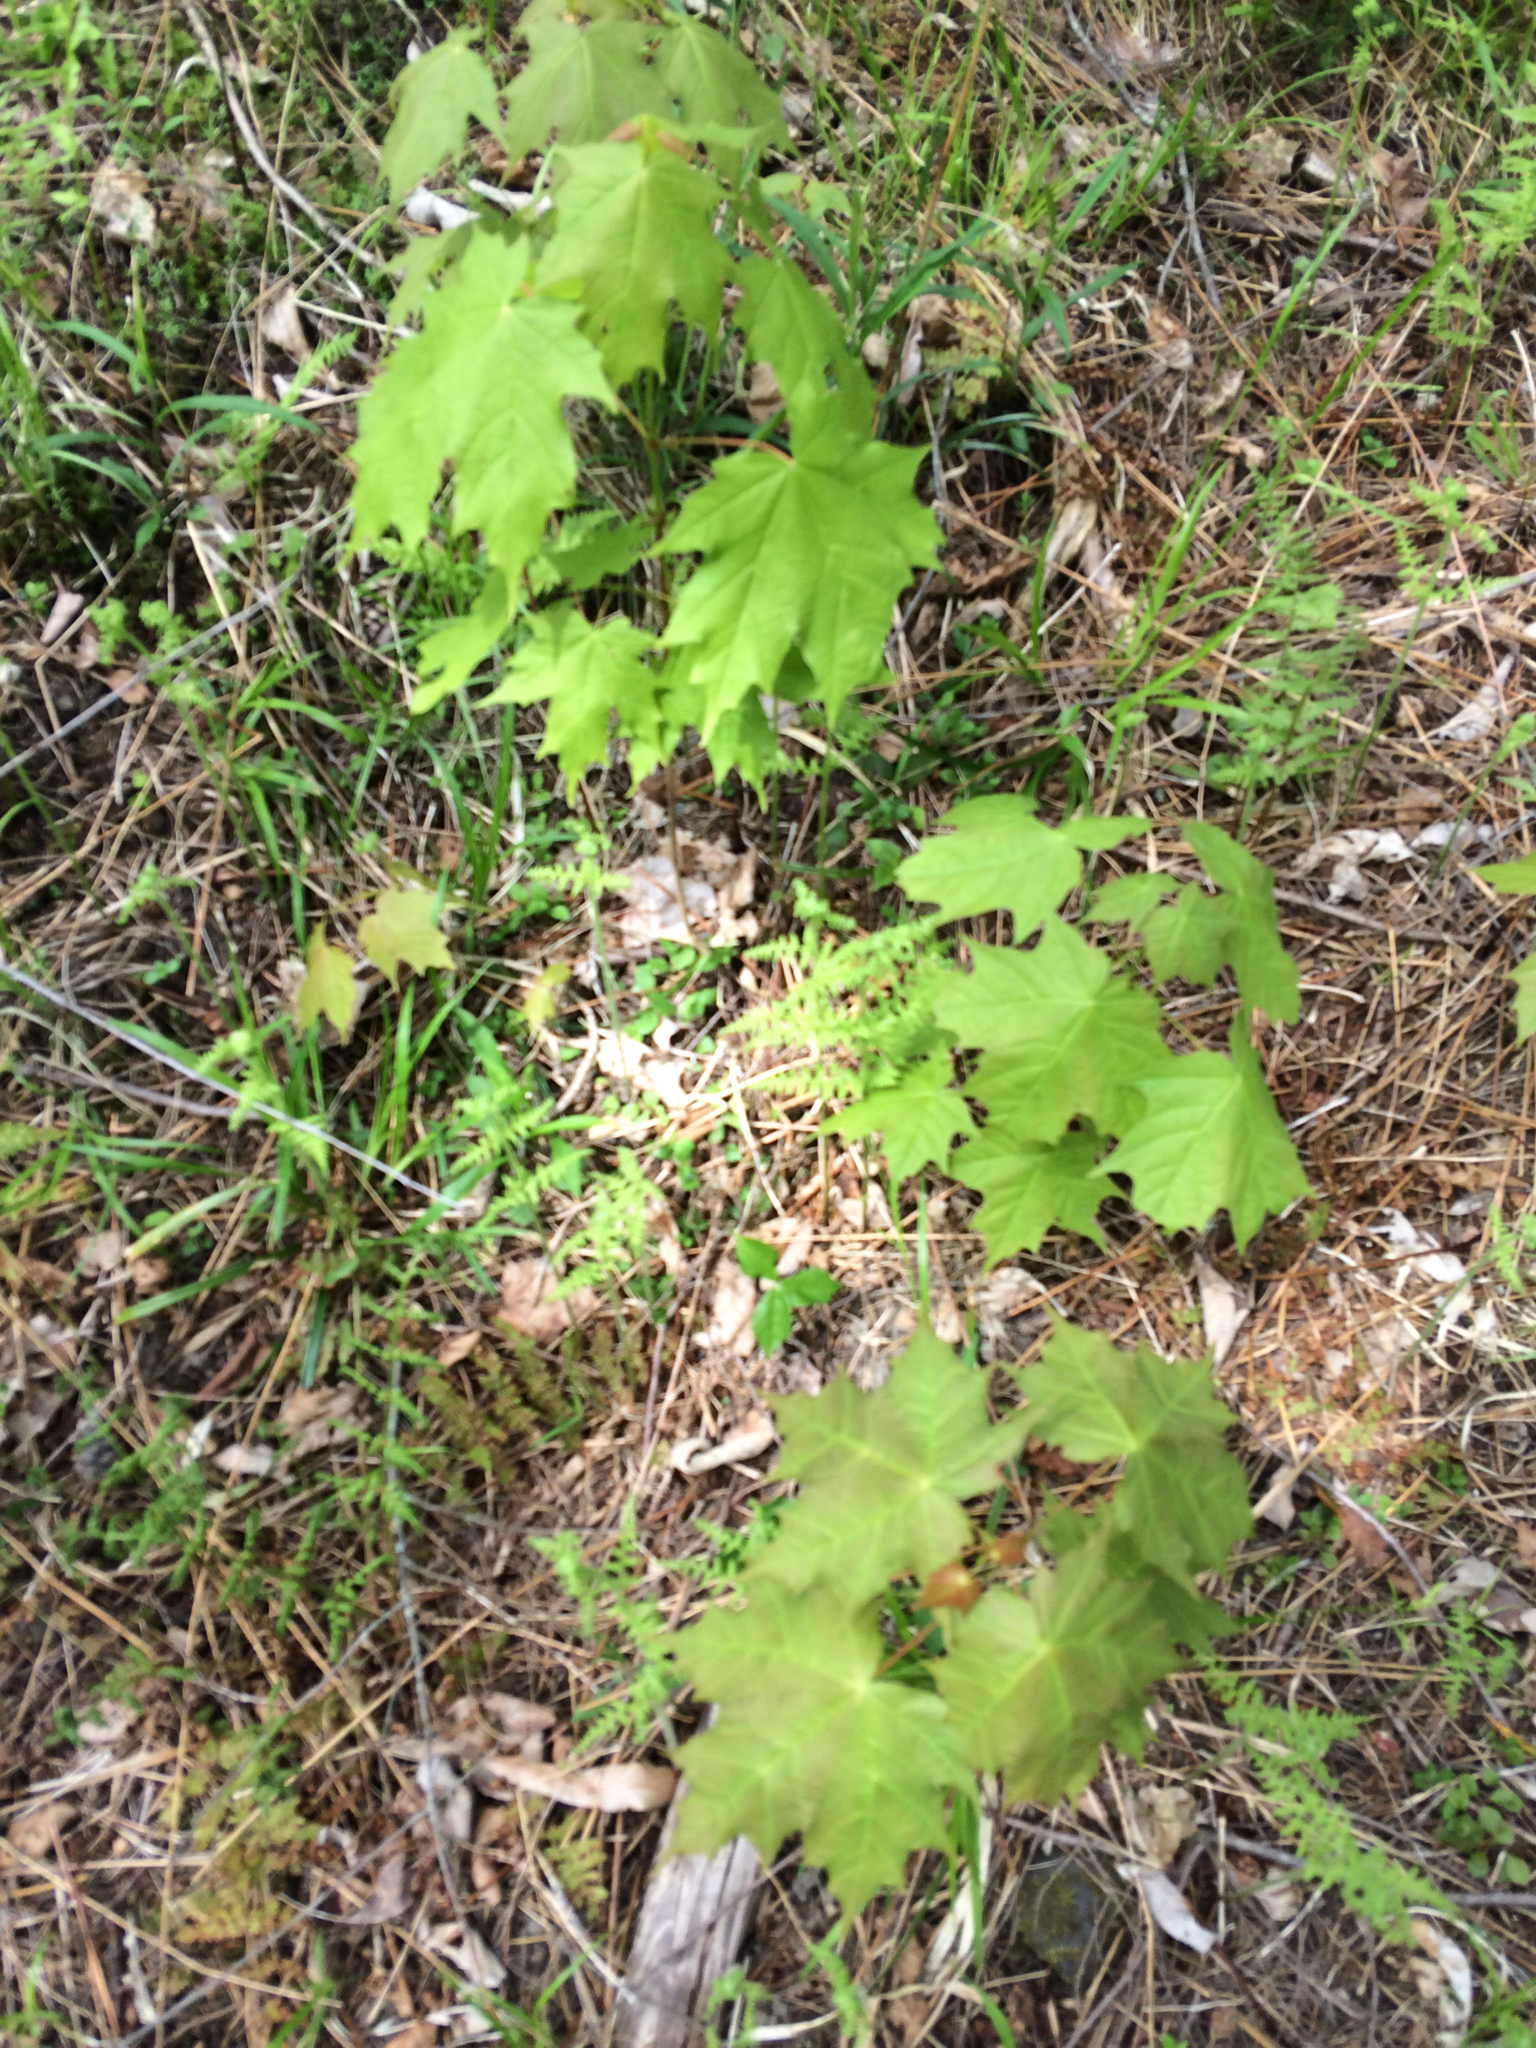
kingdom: Plantae
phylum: Tracheophyta
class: Magnoliopsida
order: Sapindales
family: Sapindaceae
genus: Acer
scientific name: Acer saccharum
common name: Sugar maple
